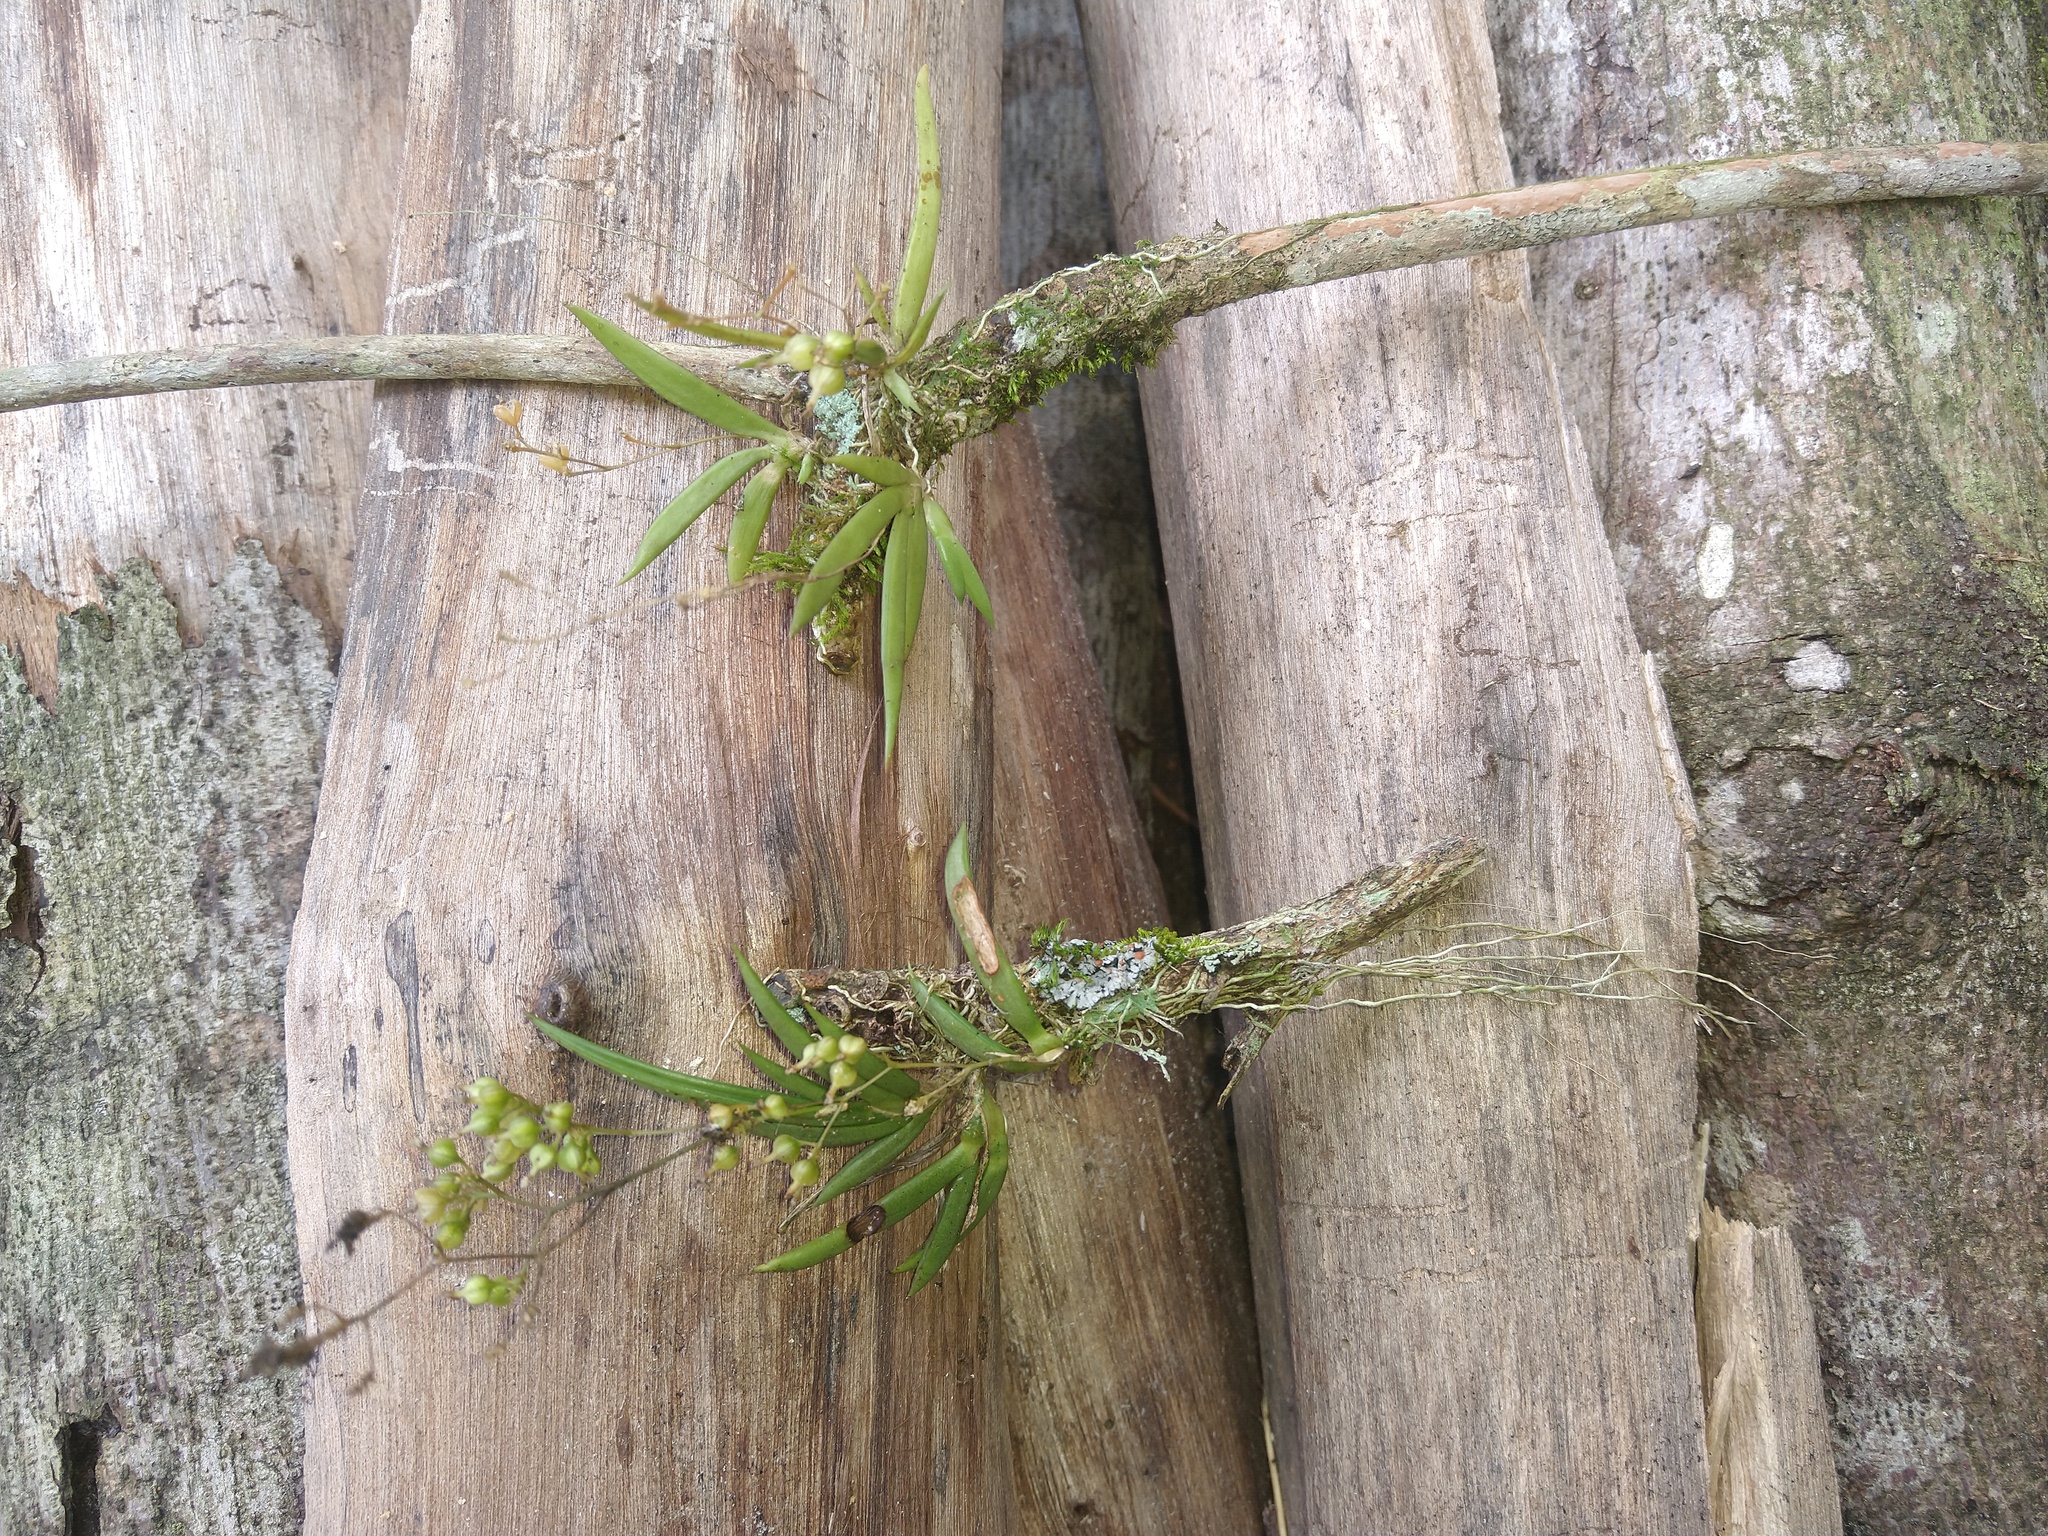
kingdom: Plantae
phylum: Tracheophyta
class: Liliopsida
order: Asparagales
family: Orchidaceae
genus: Trizeuxis
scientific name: Trizeuxis falcata
